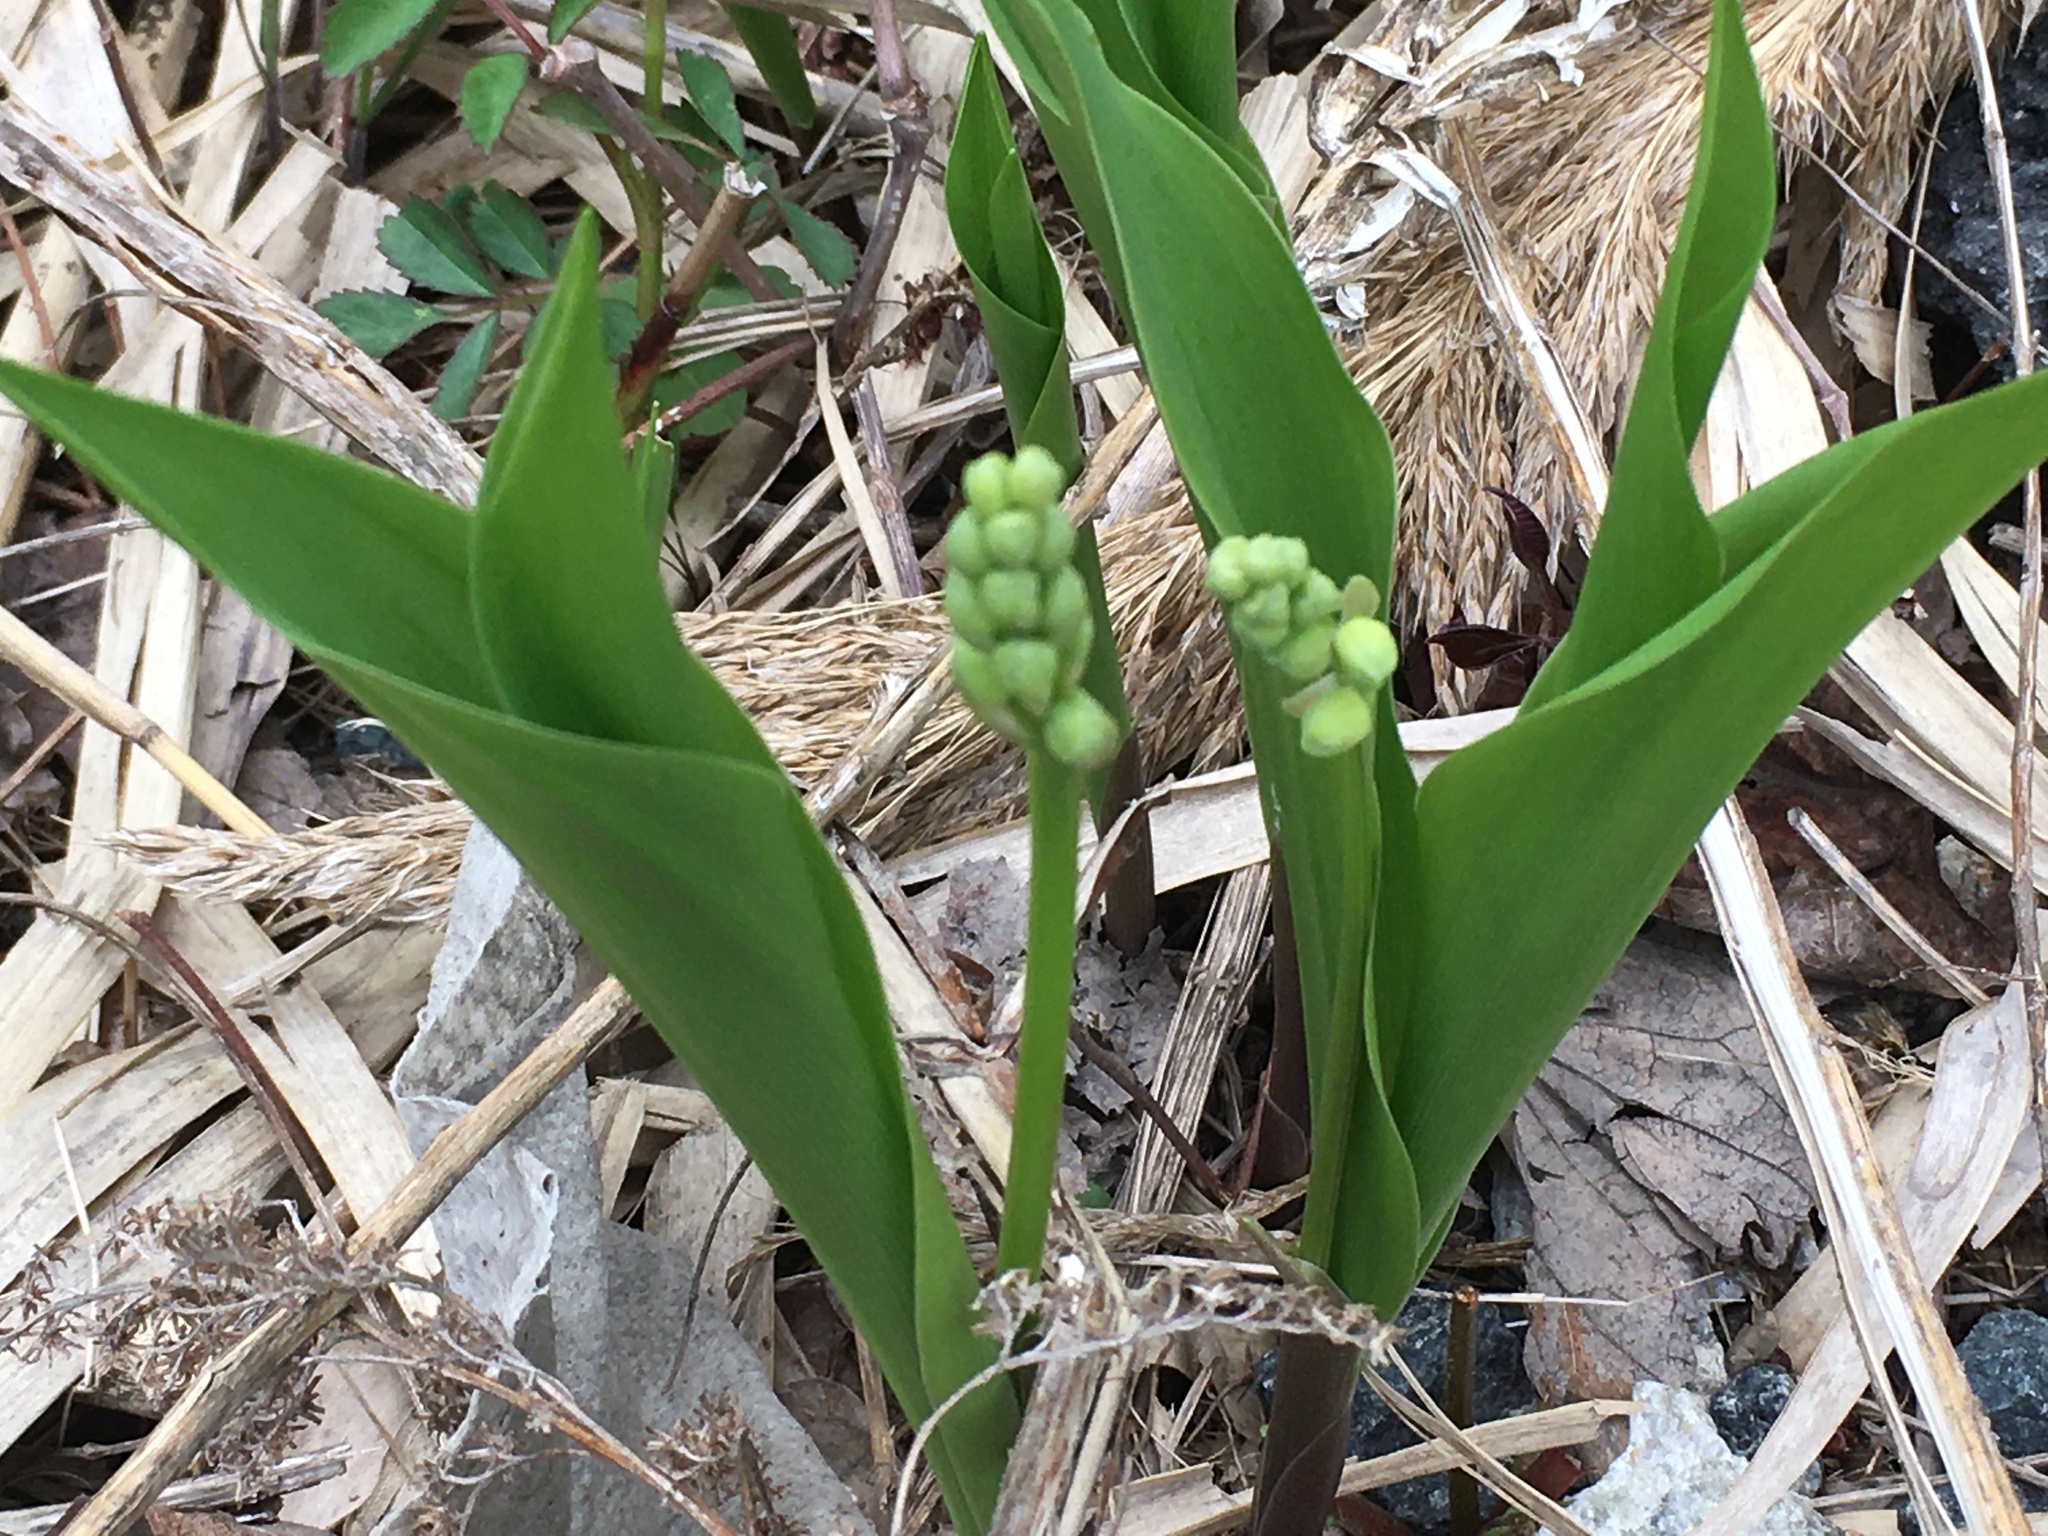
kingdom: Plantae
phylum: Tracheophyta
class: Liliopsida
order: Asparagales
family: Asparagaceae
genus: Convallaria
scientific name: Convallaria majalis
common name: Lily-of-the-valley
